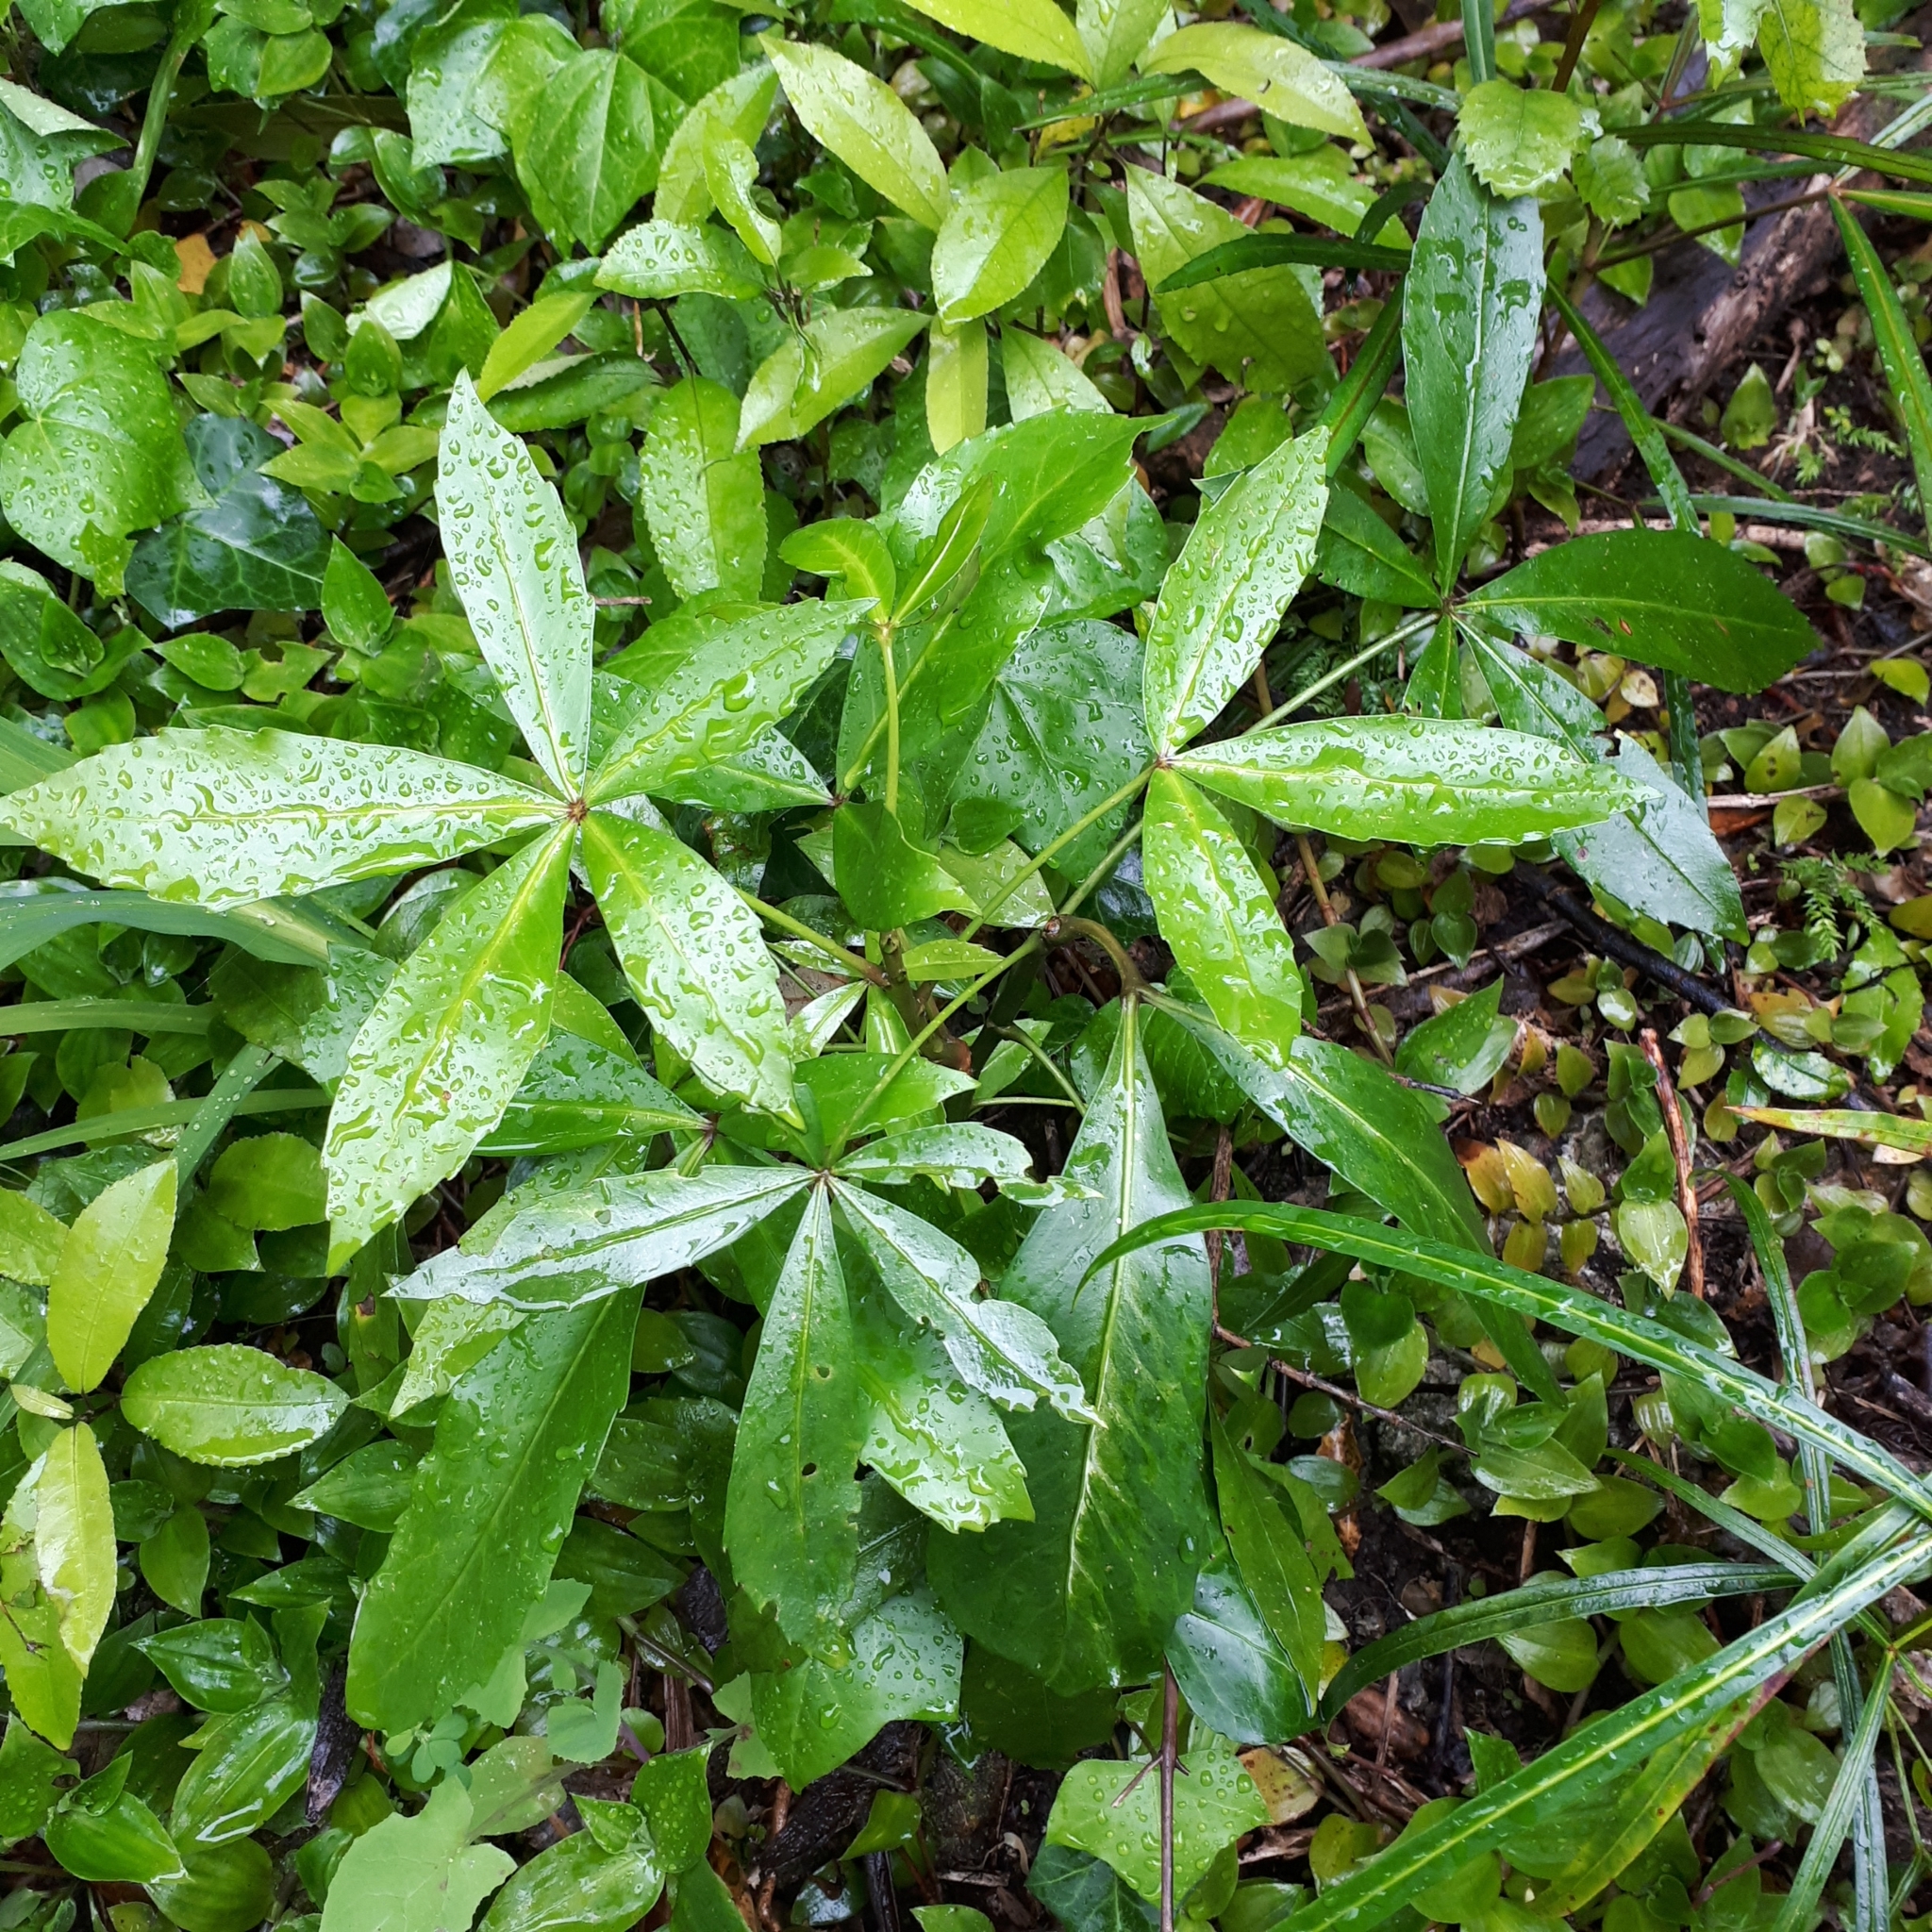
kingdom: Plantae
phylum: Tracheophyta
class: Magnoliopsida
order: Apiales
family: Araliaceae
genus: Pseudopanax
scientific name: Pseudopanax
